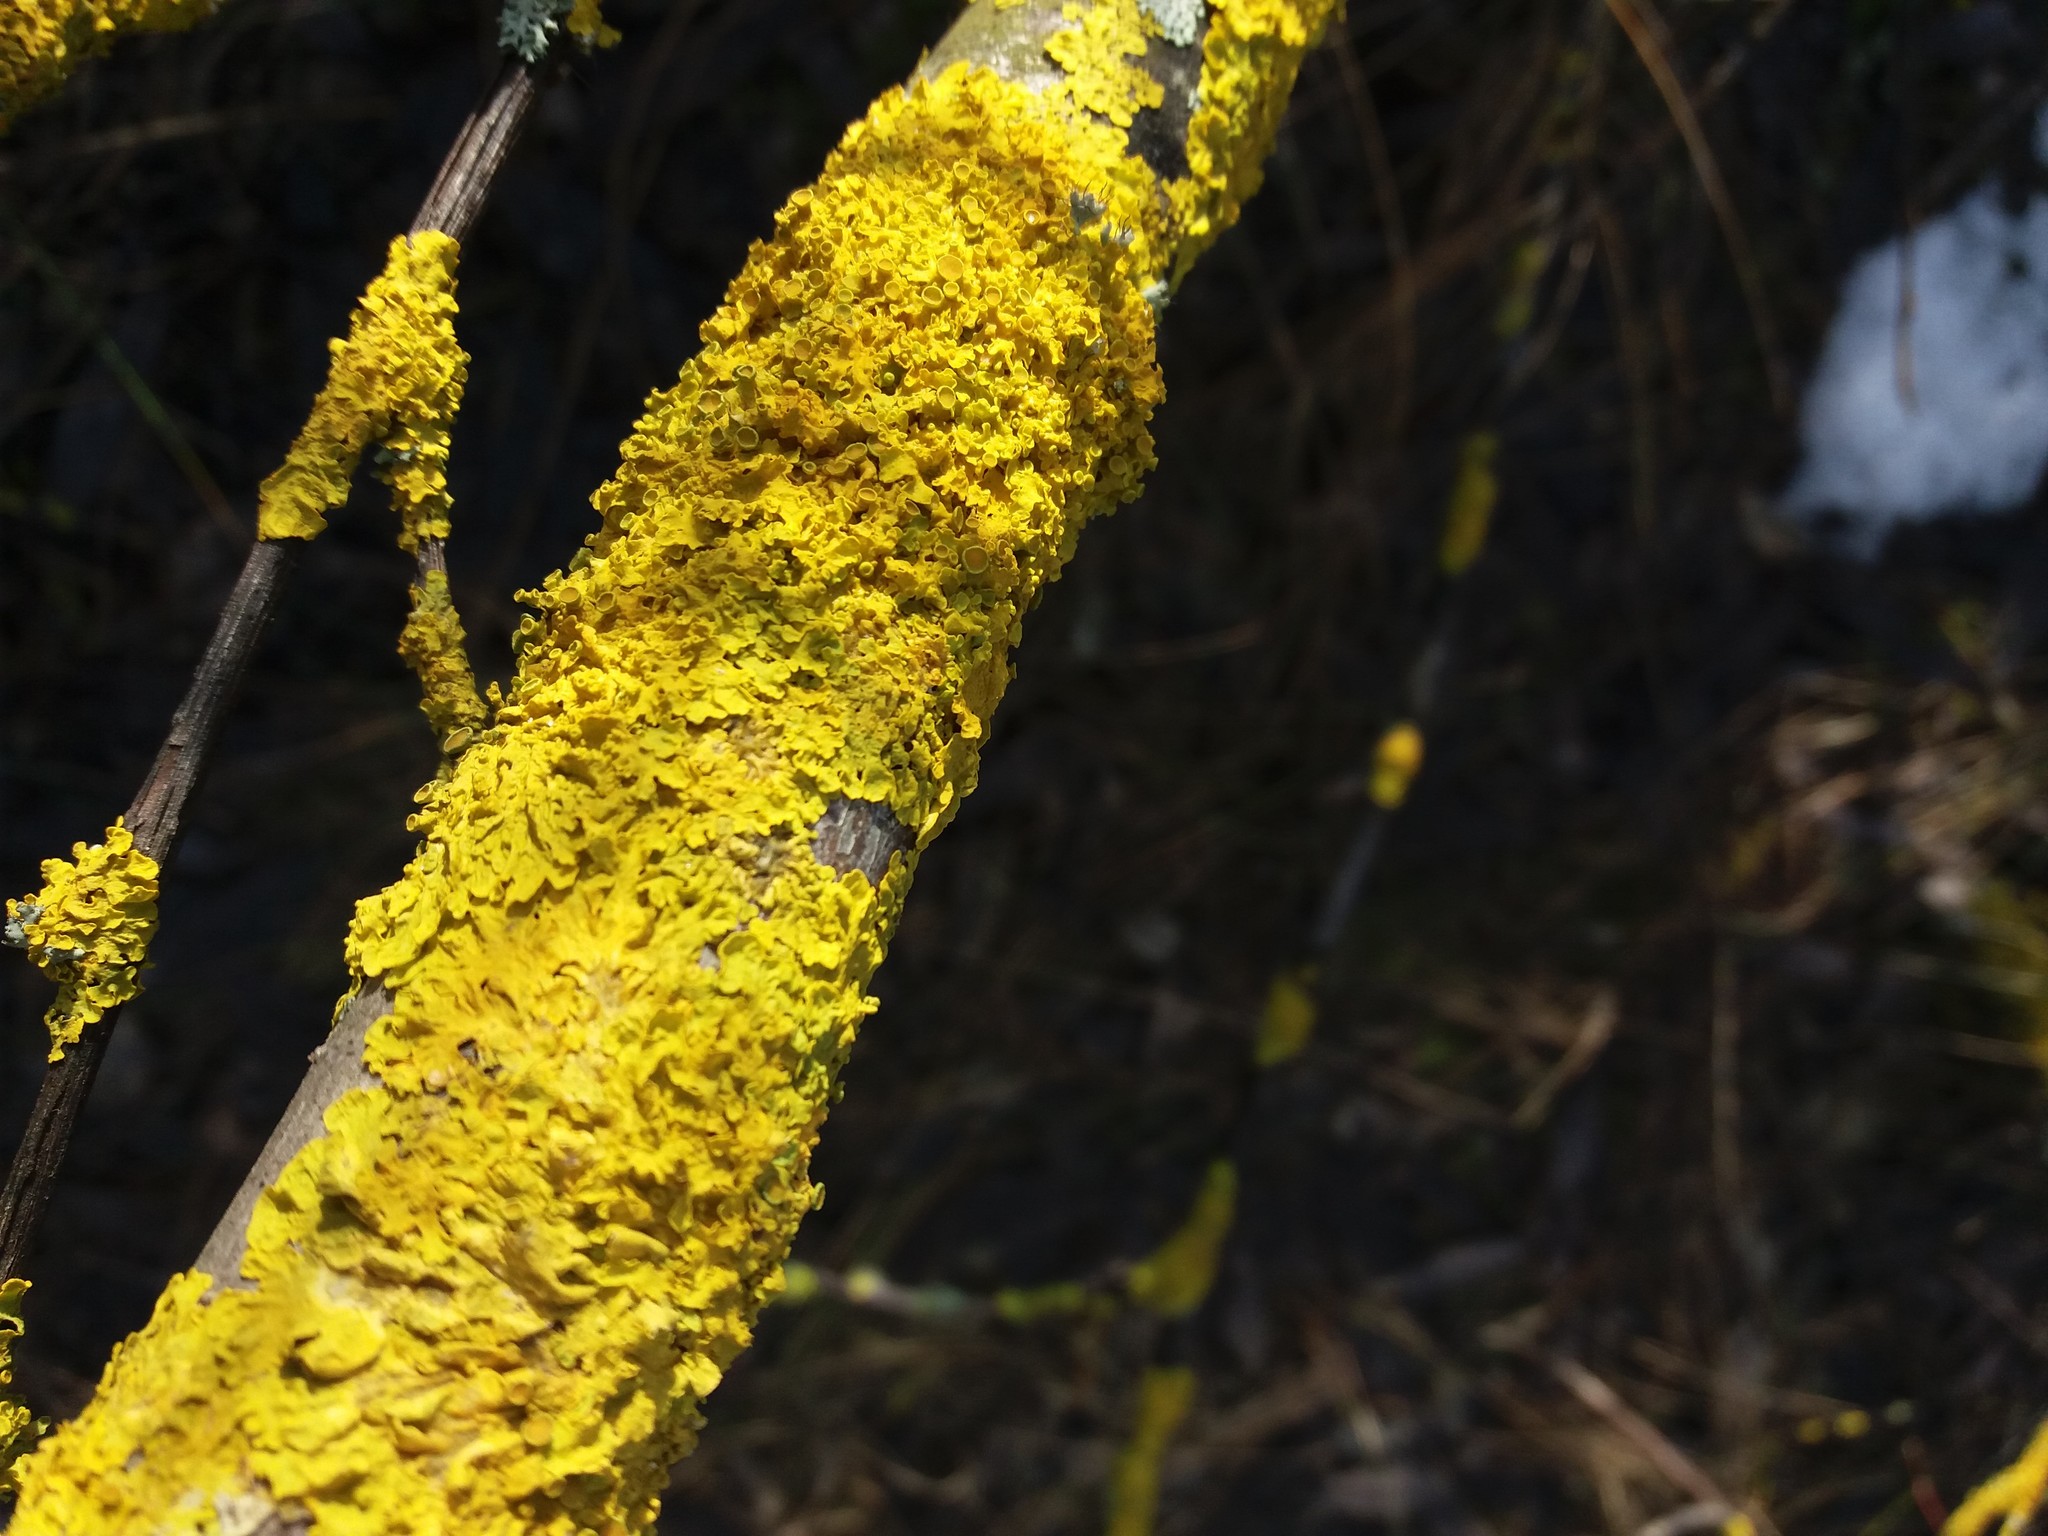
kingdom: Fungi
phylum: Ascomycota
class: Lecanoromycetes
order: Teloschistales
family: Teloschistaceae
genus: Xanthoria
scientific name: Xanthoria parietina
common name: Common orange lichen
